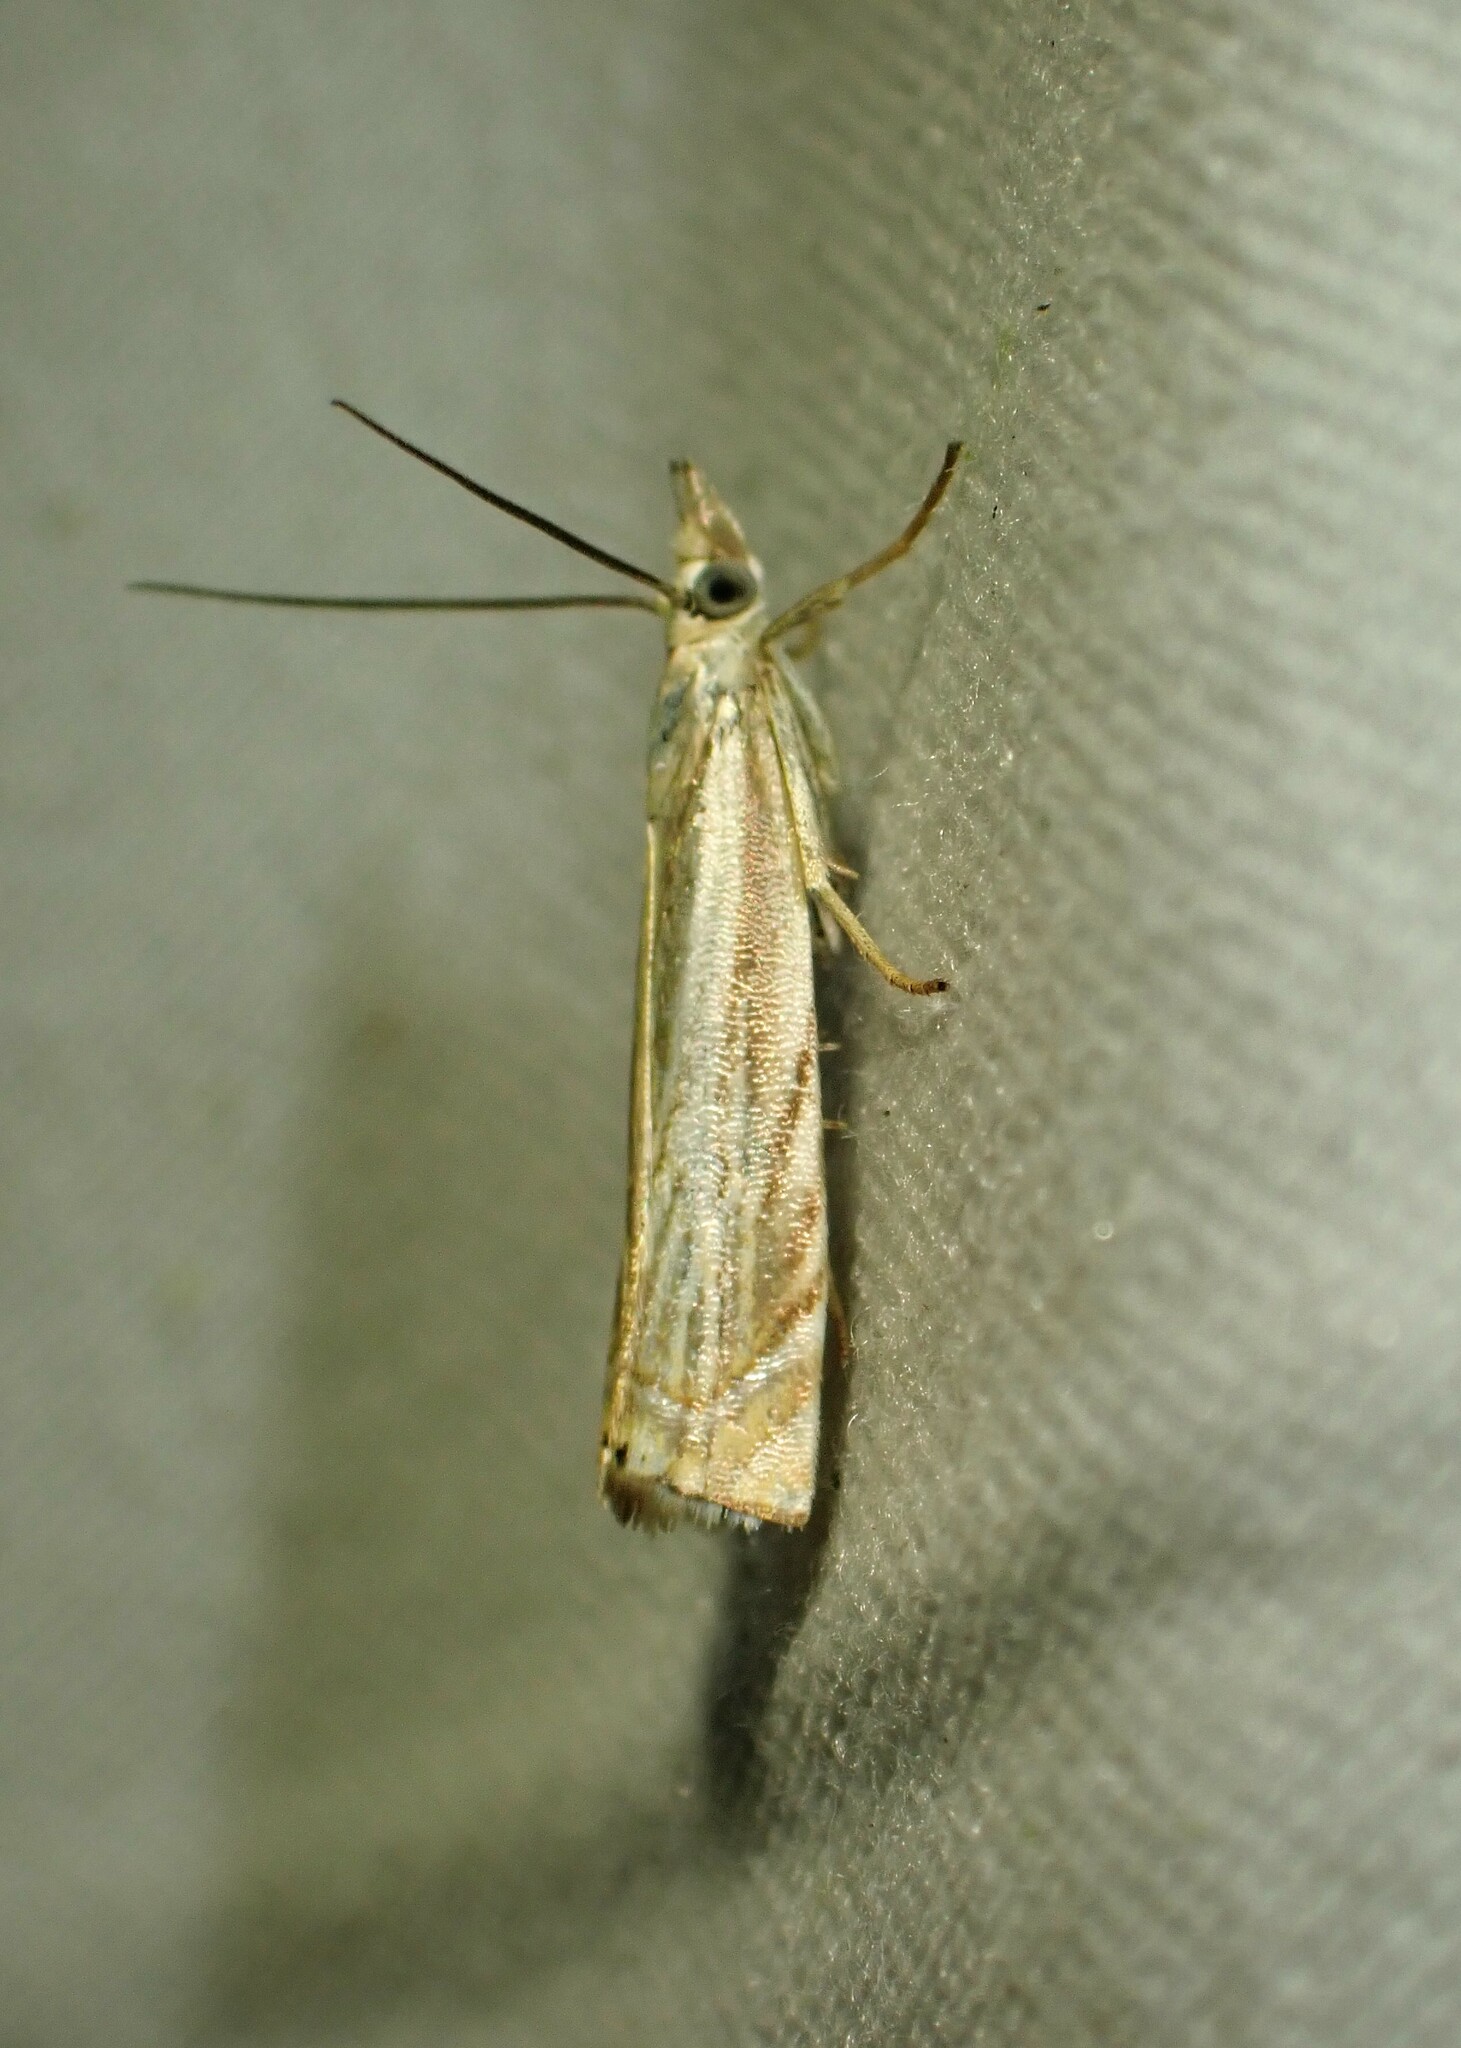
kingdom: Animalia
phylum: Arthropoda
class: Insecta
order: Lepidoptera
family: Crambidae
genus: Chrysoteuchia
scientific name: Chrysoteuchia topiarius
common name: Topiary grass-veneer
